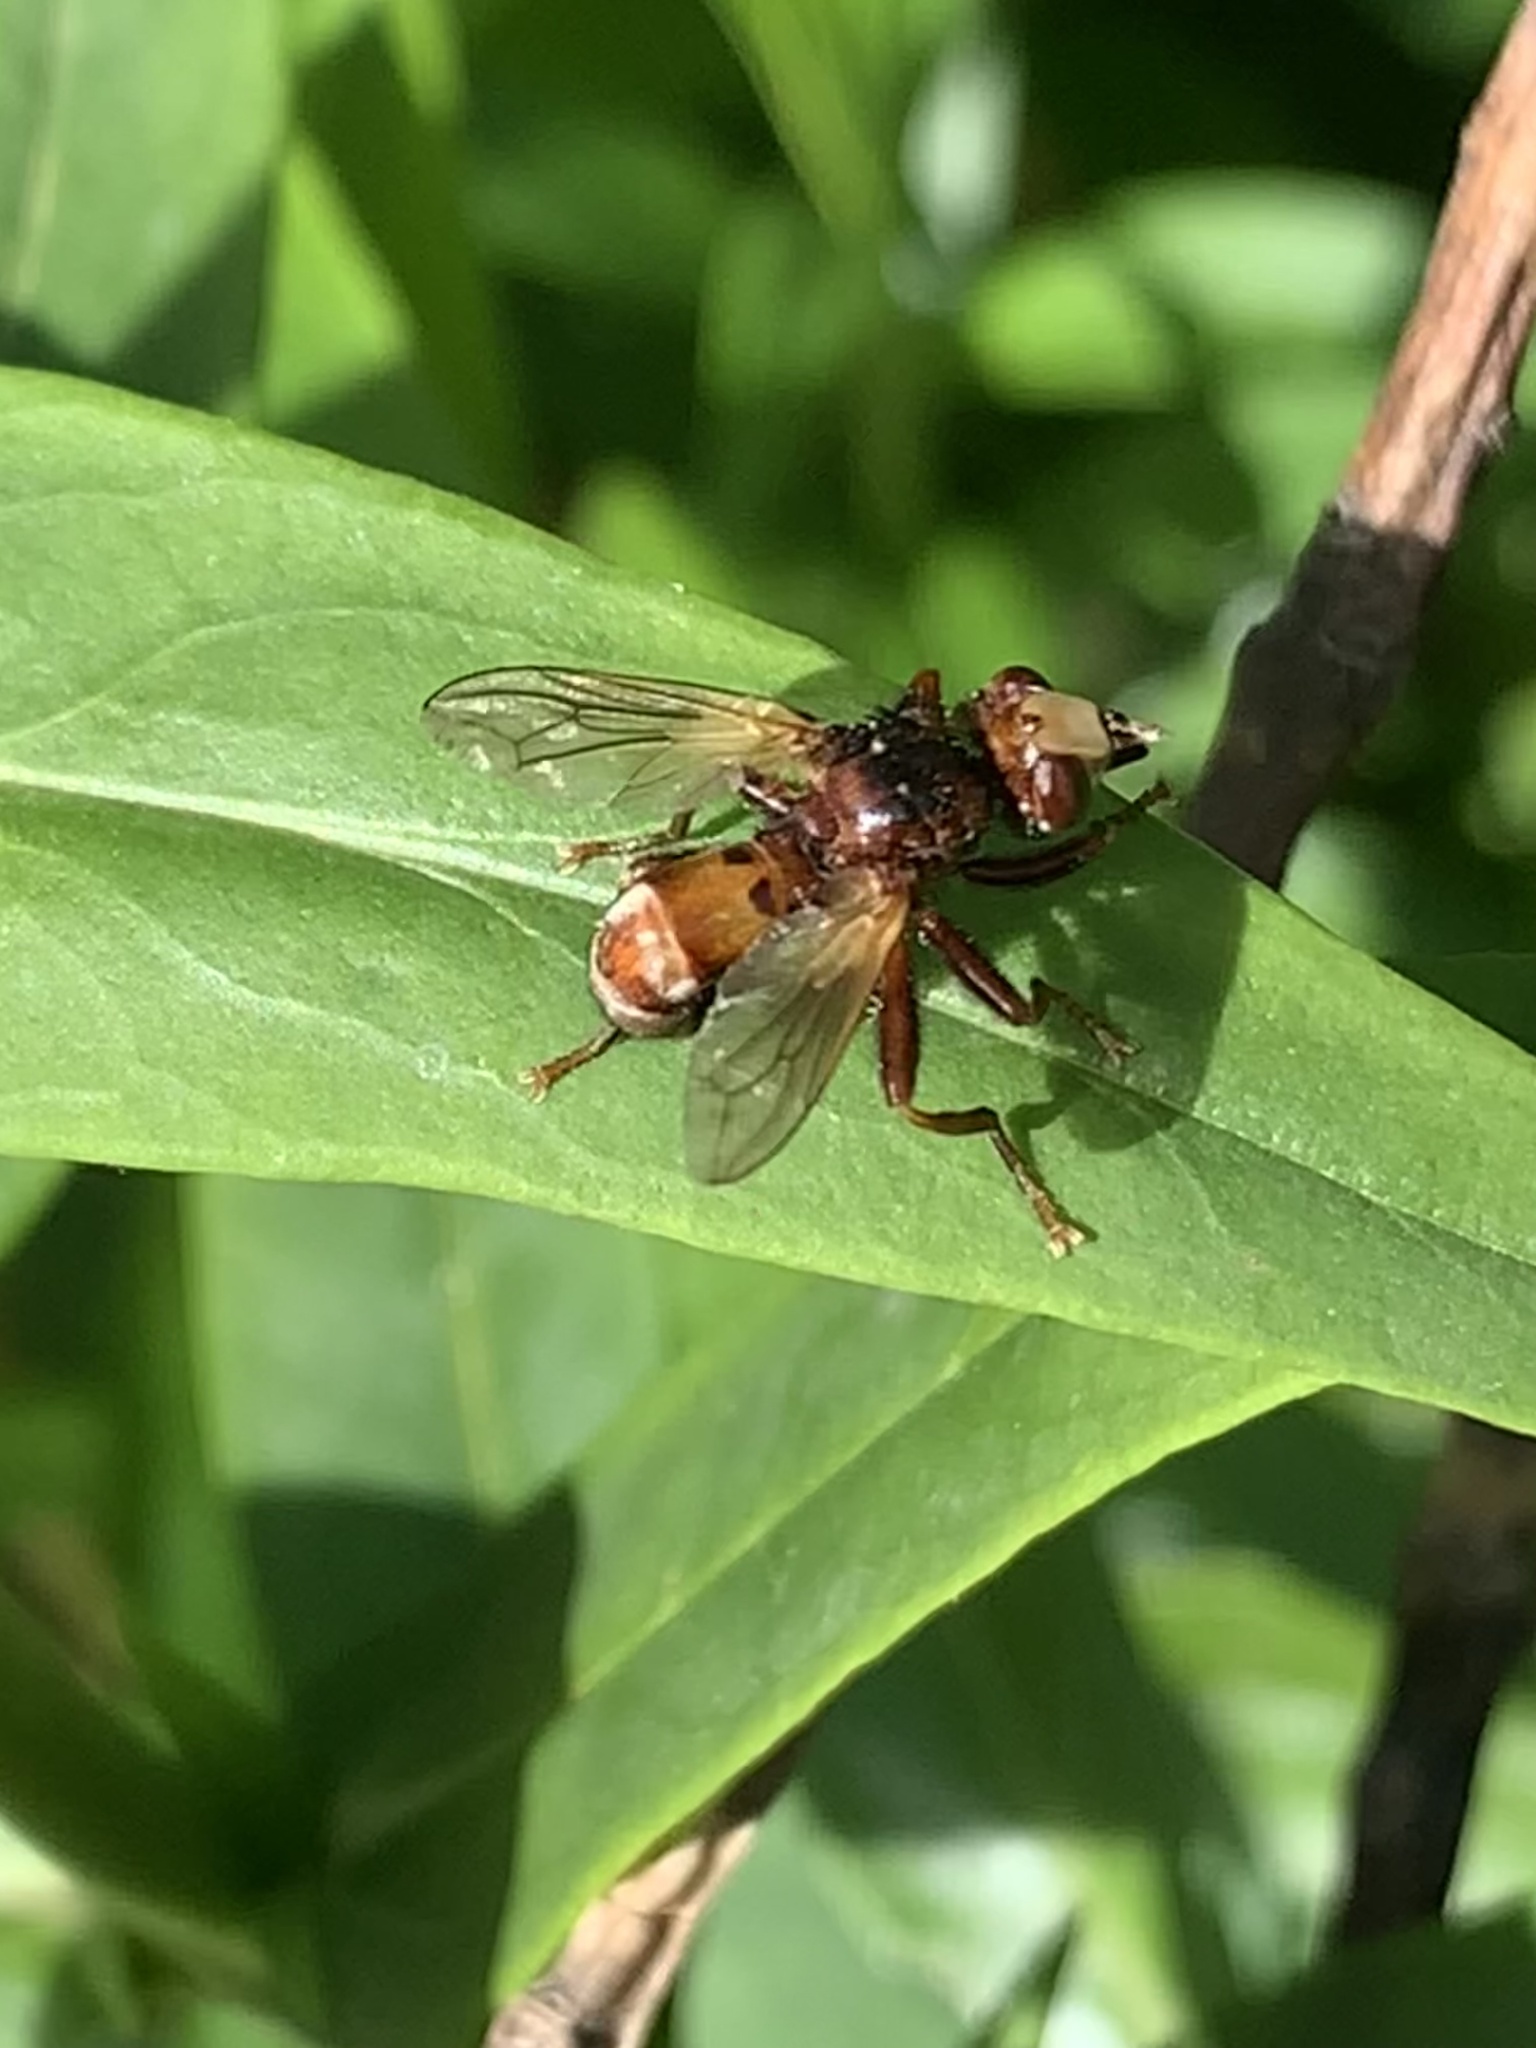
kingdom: Animalia
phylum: Arthropoda
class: Insecta
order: Diptera
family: Conopidae
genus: Sicus
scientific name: Sicus ferrugineus
